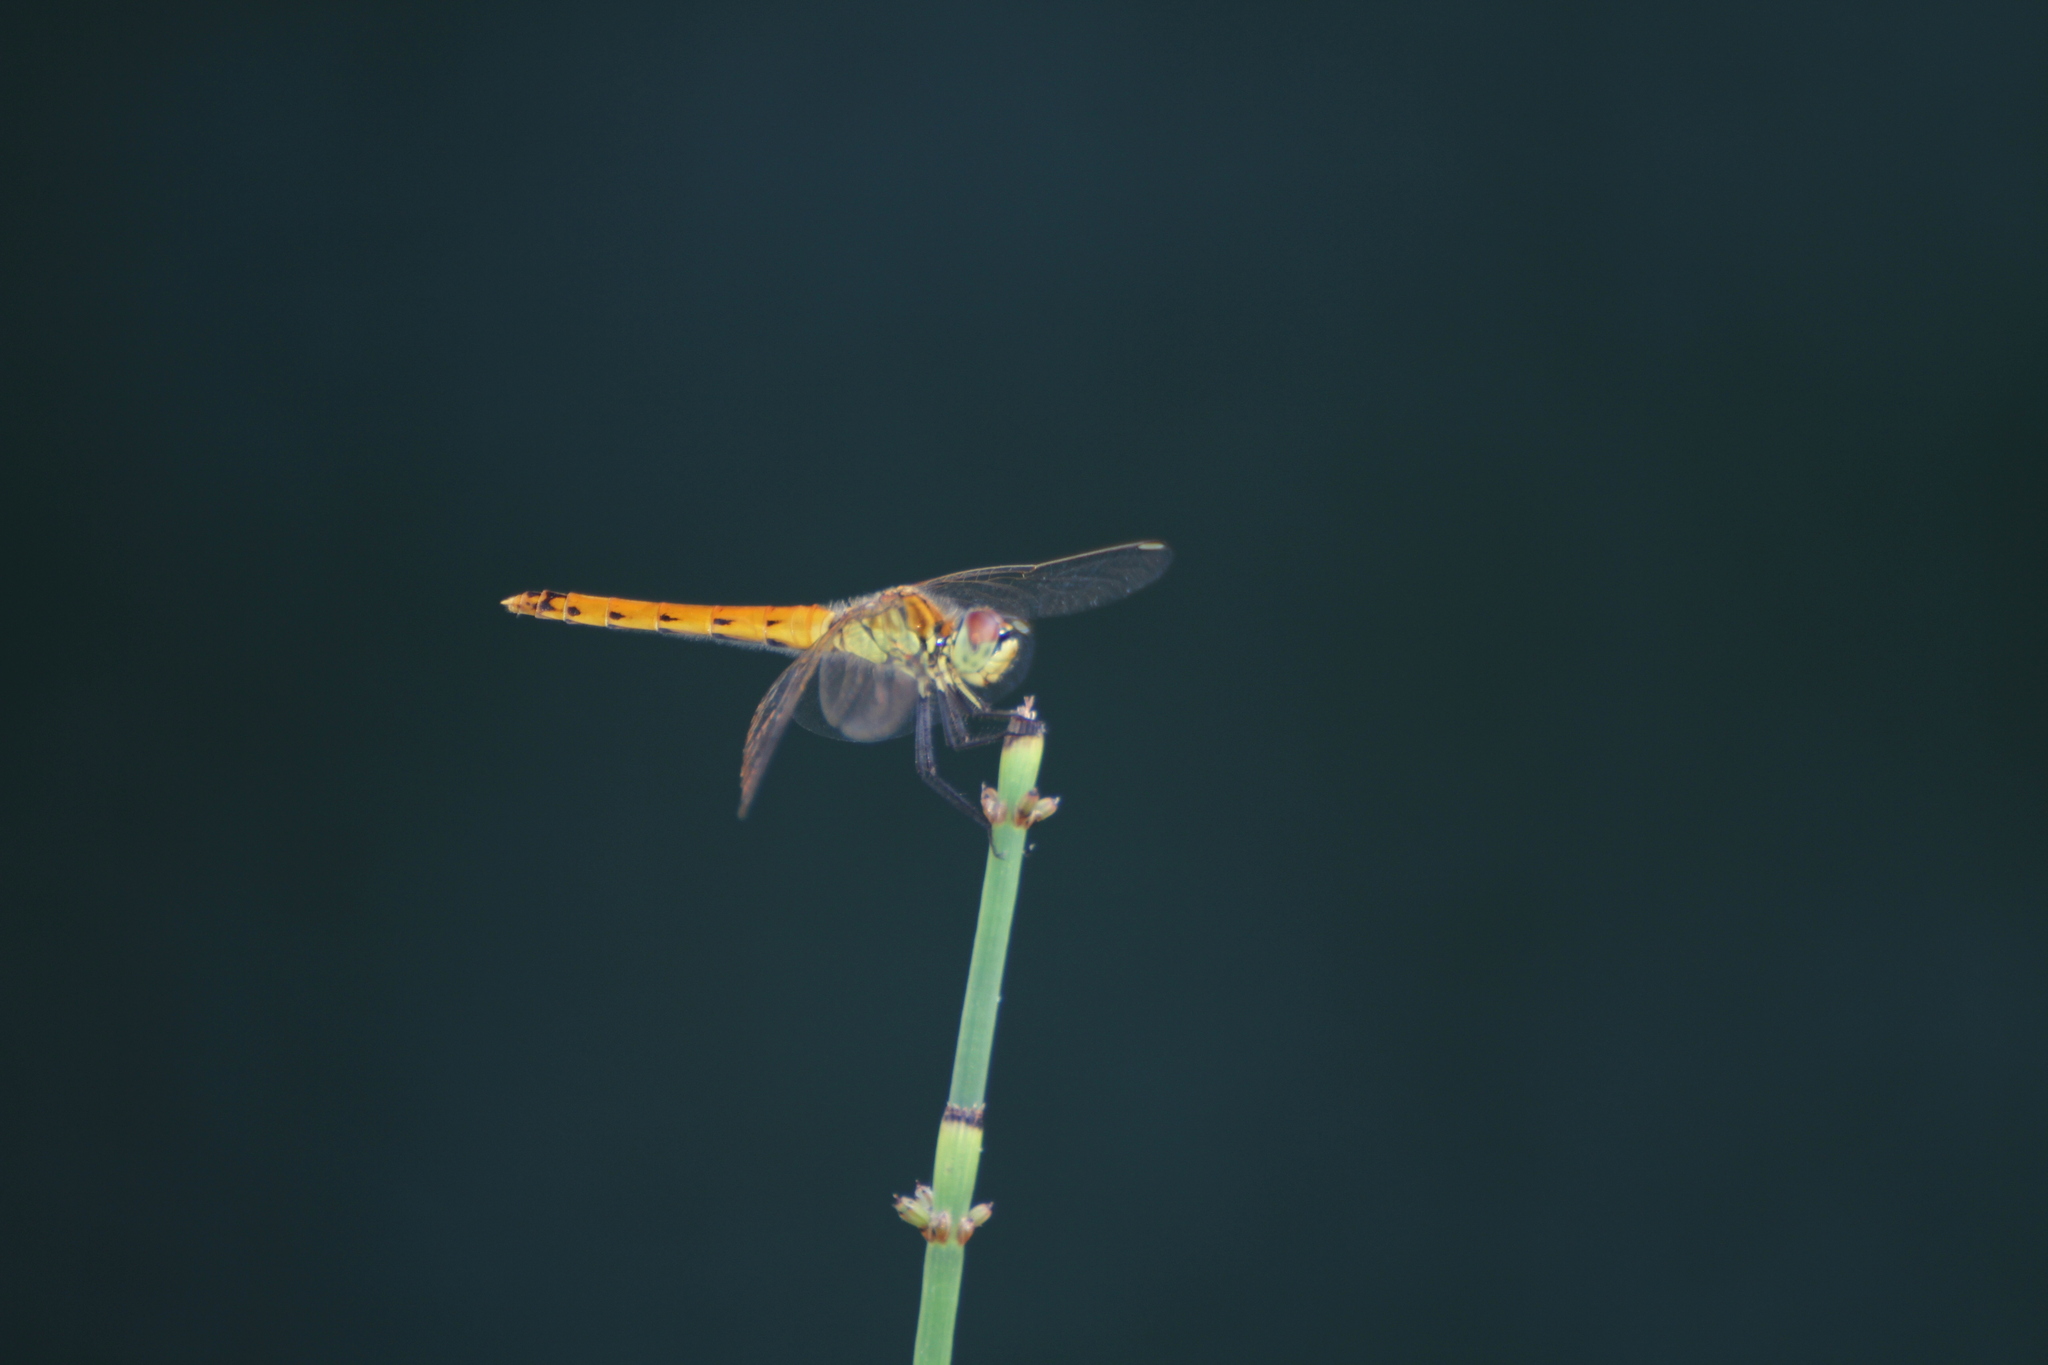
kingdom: Animalia
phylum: Arthropoda
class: Insecta
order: Odonata
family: Libellulidae
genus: Sympetrum
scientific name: Sympetrum depressiusculum
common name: Spotted darter
